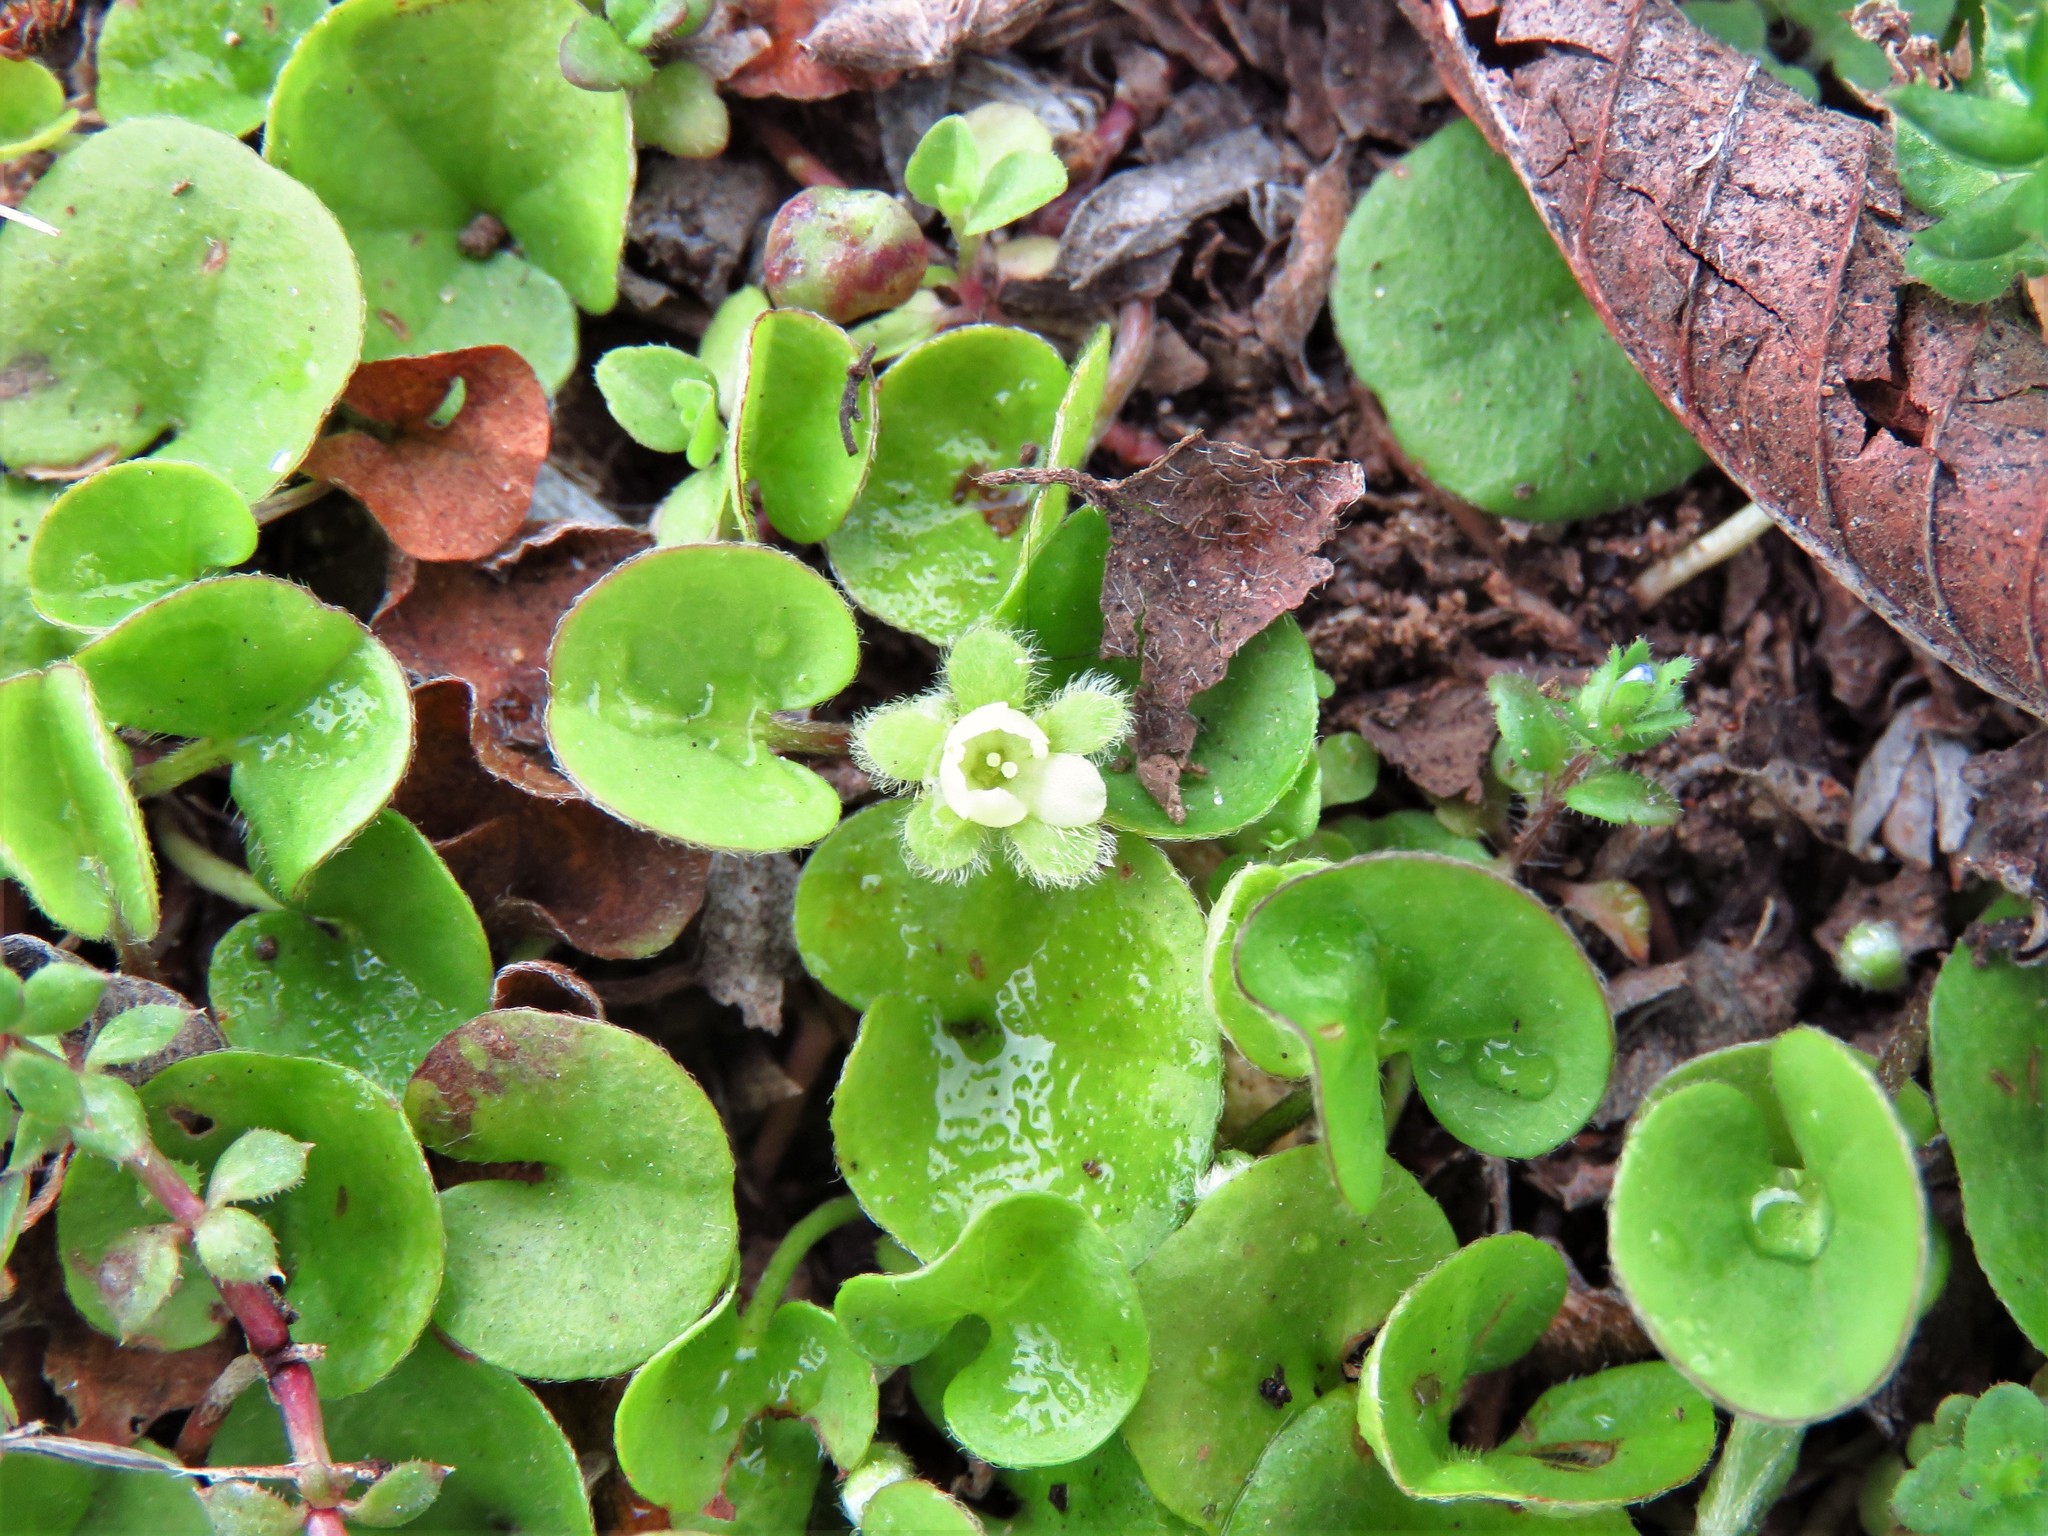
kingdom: Plantae
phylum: Tracheophyta
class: Magnoliopsida
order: Solanales
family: Convolvulaceae
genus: Dichondra
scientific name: Dichondra carolinensis
